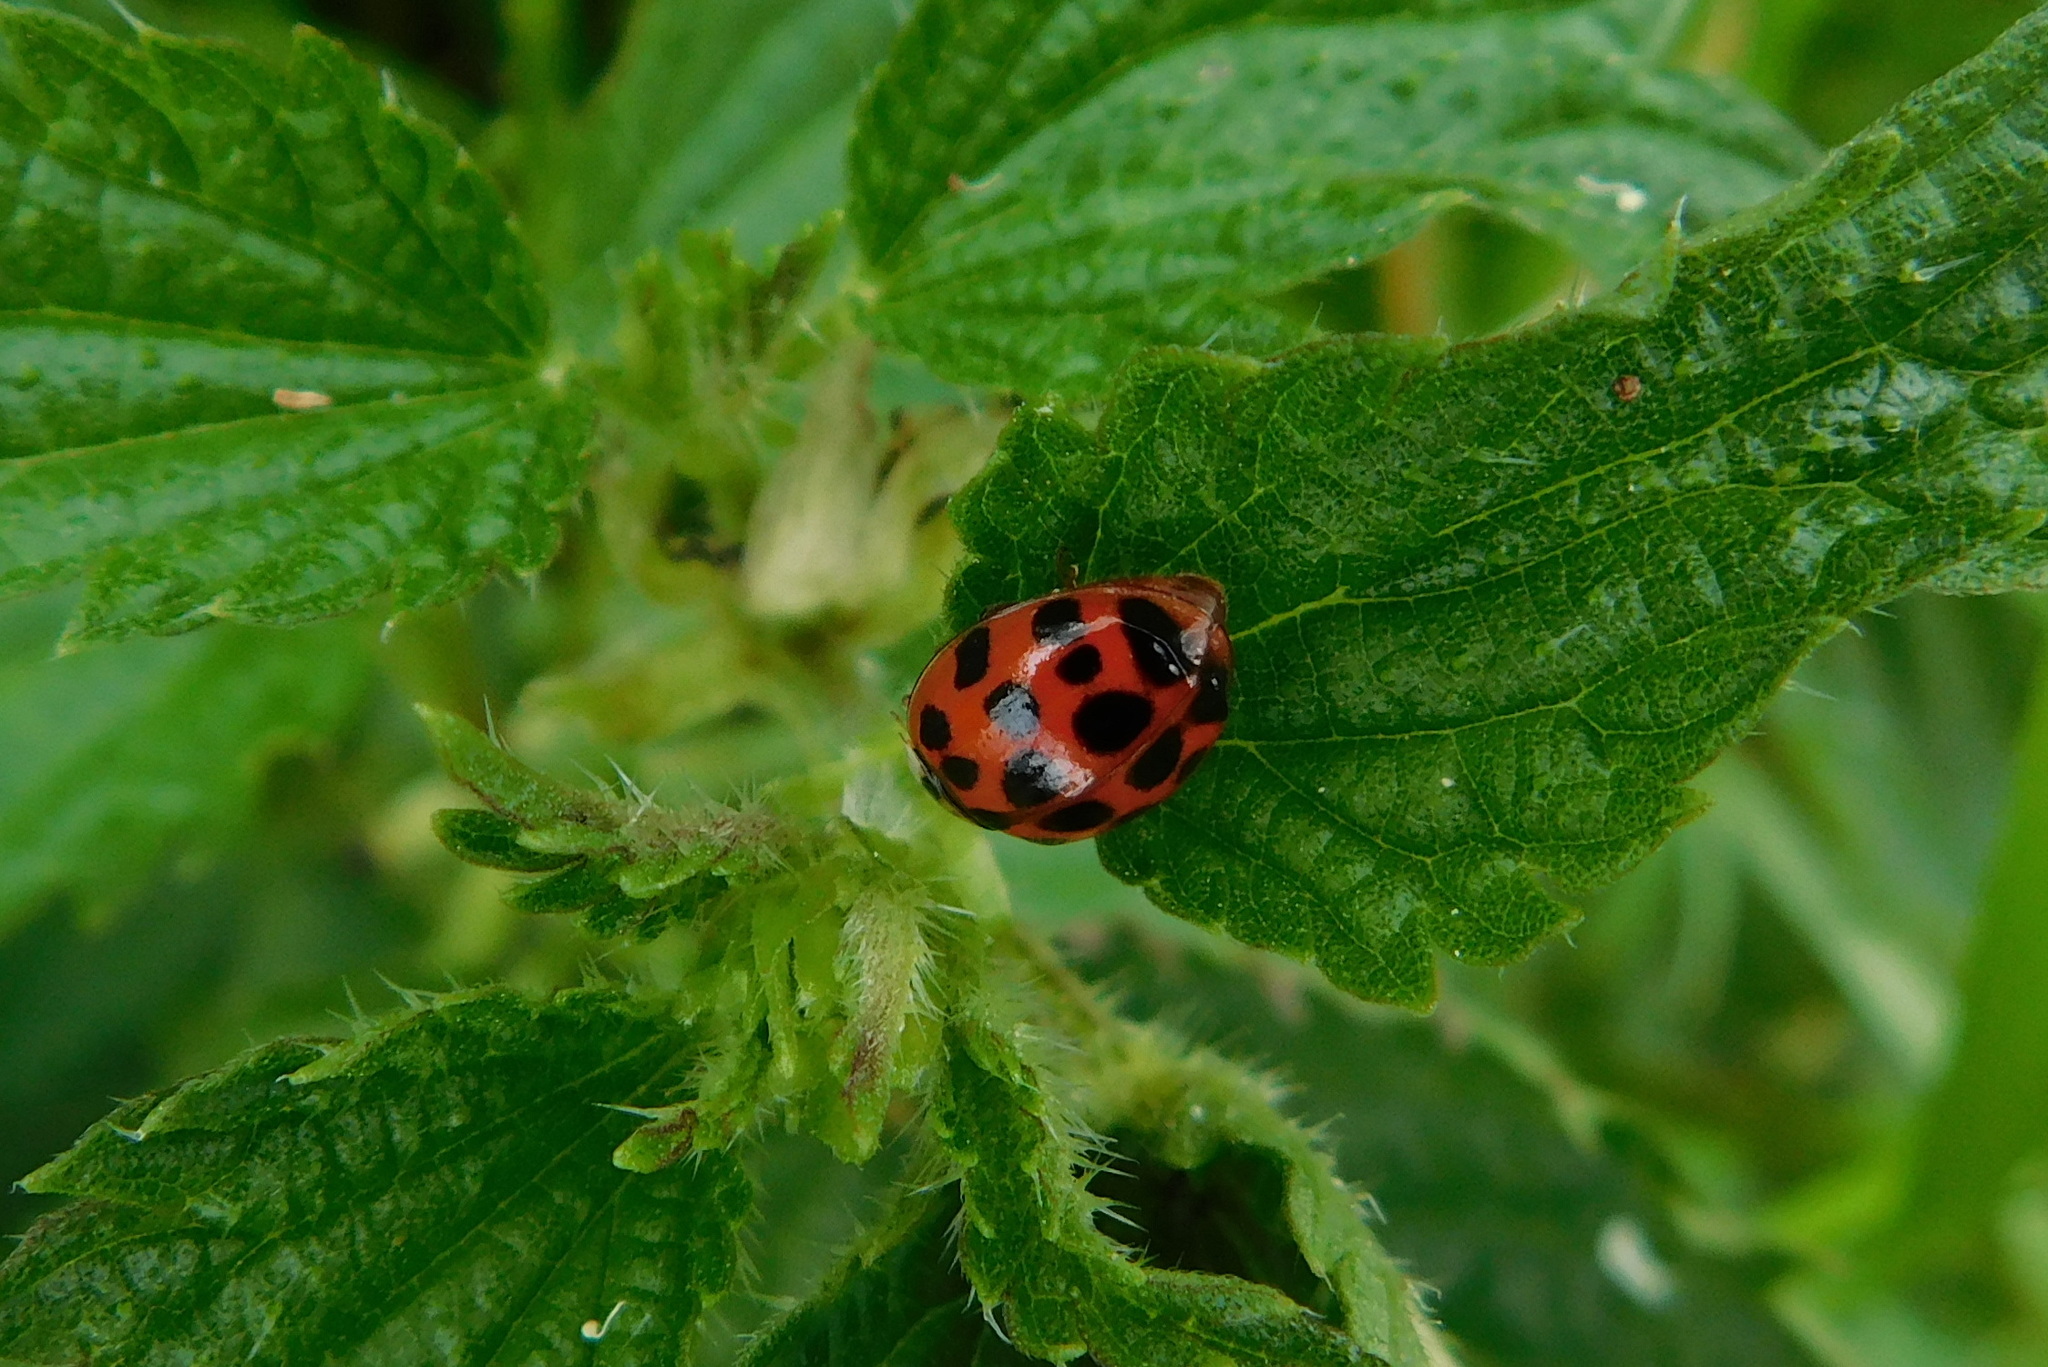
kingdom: Animalia
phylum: Arthropoda
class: Insecta
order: Coleoptera
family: Coccinellidae
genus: Harmonia
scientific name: Harmonia axyridis
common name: Harlequin ladybird
